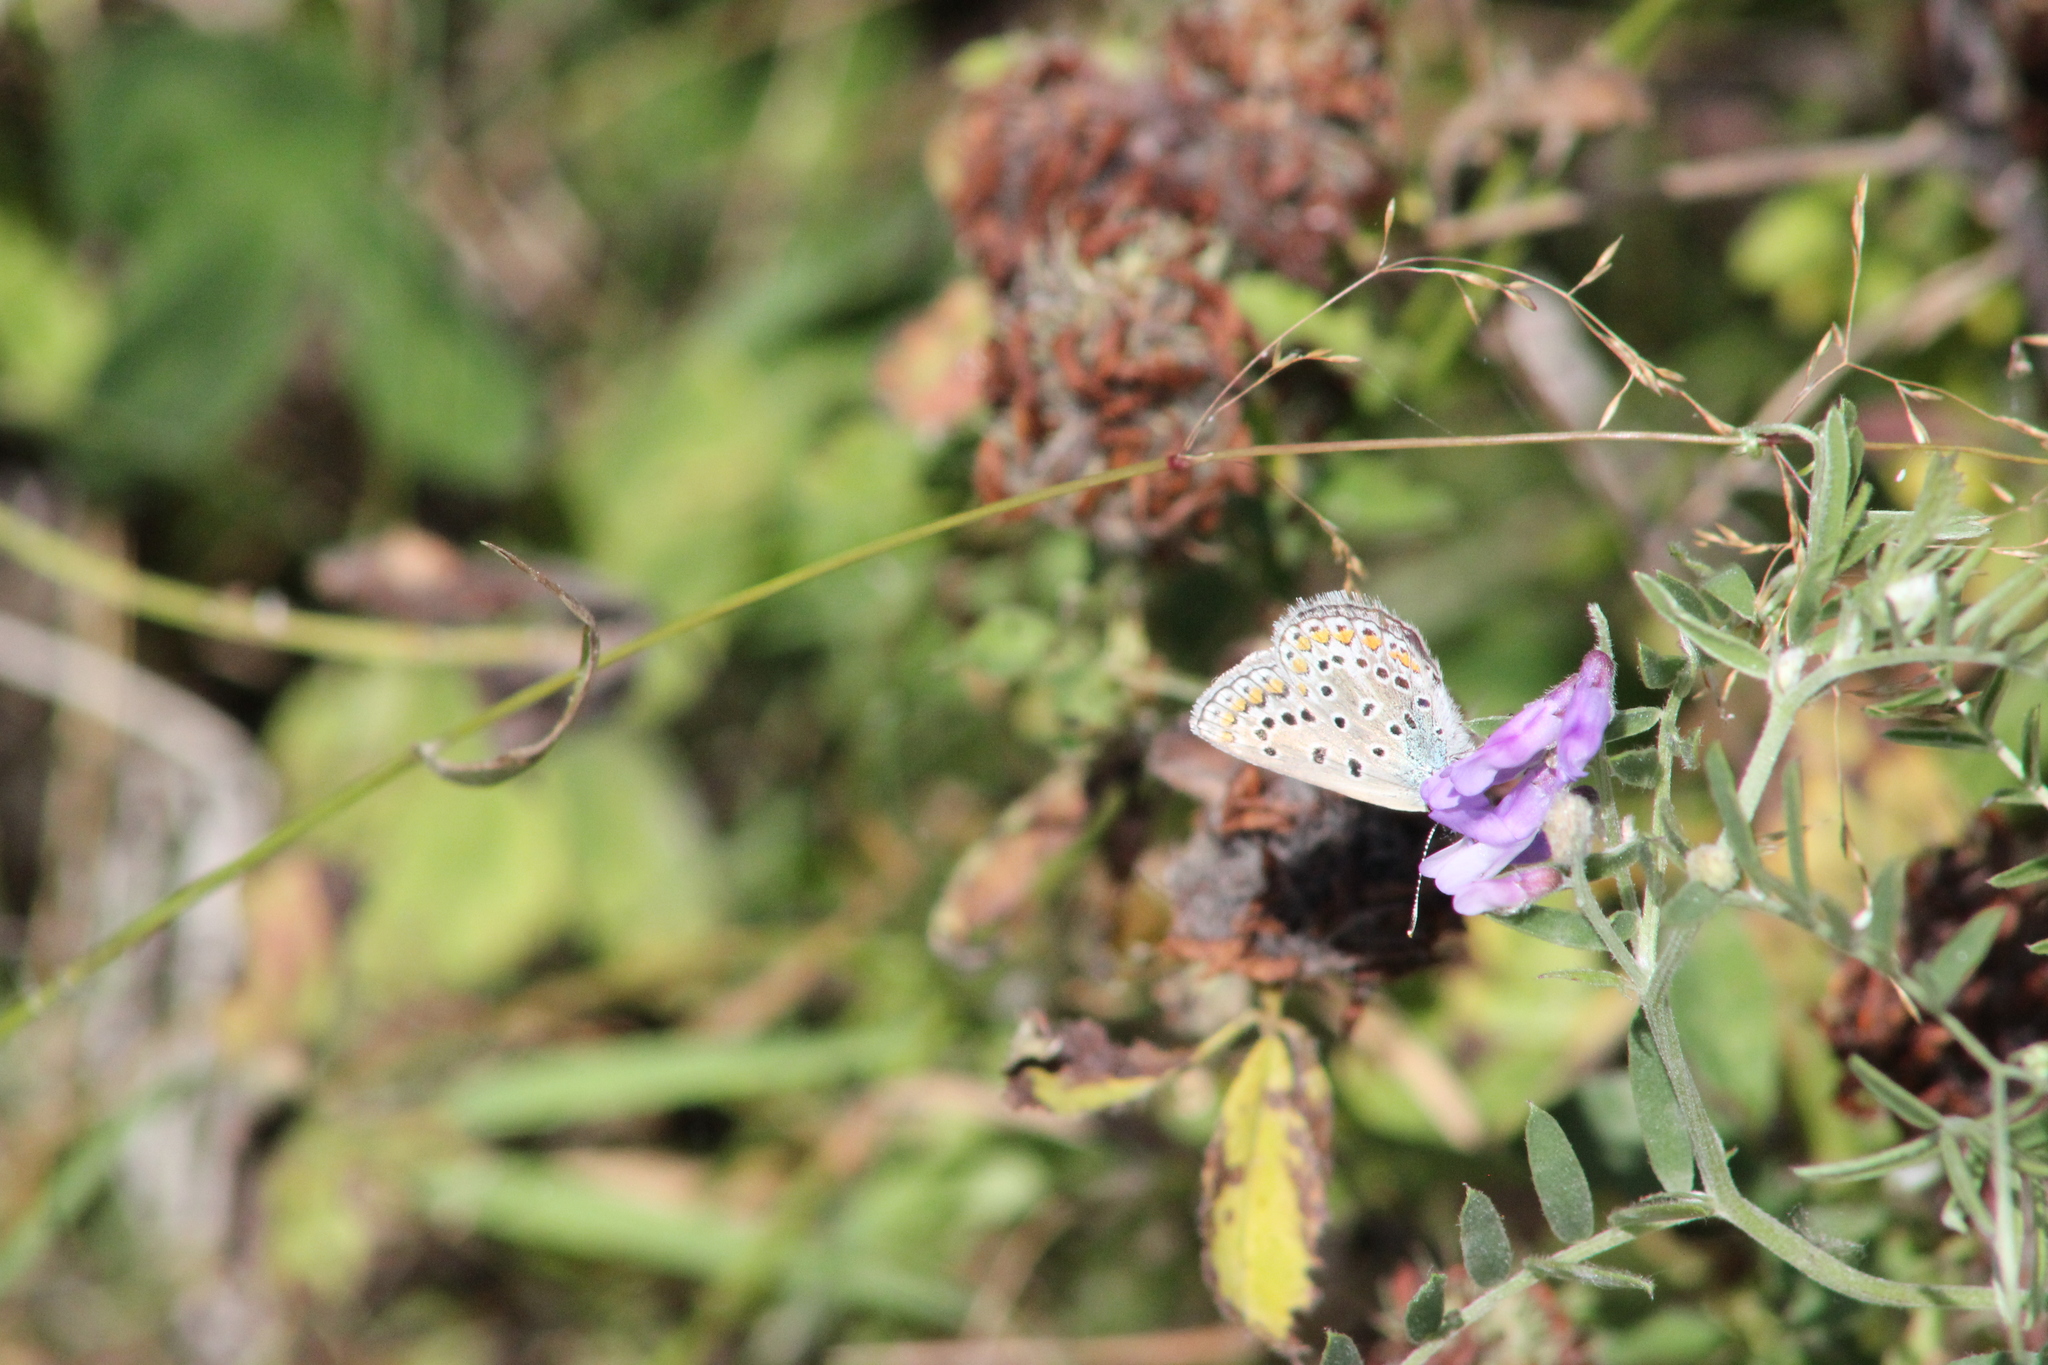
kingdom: Animalia
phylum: Arthropoda
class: Insecta
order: Lepidoptera
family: Lycaenidae
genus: Polyommatus
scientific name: Polyommatus icarus
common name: Common blue
